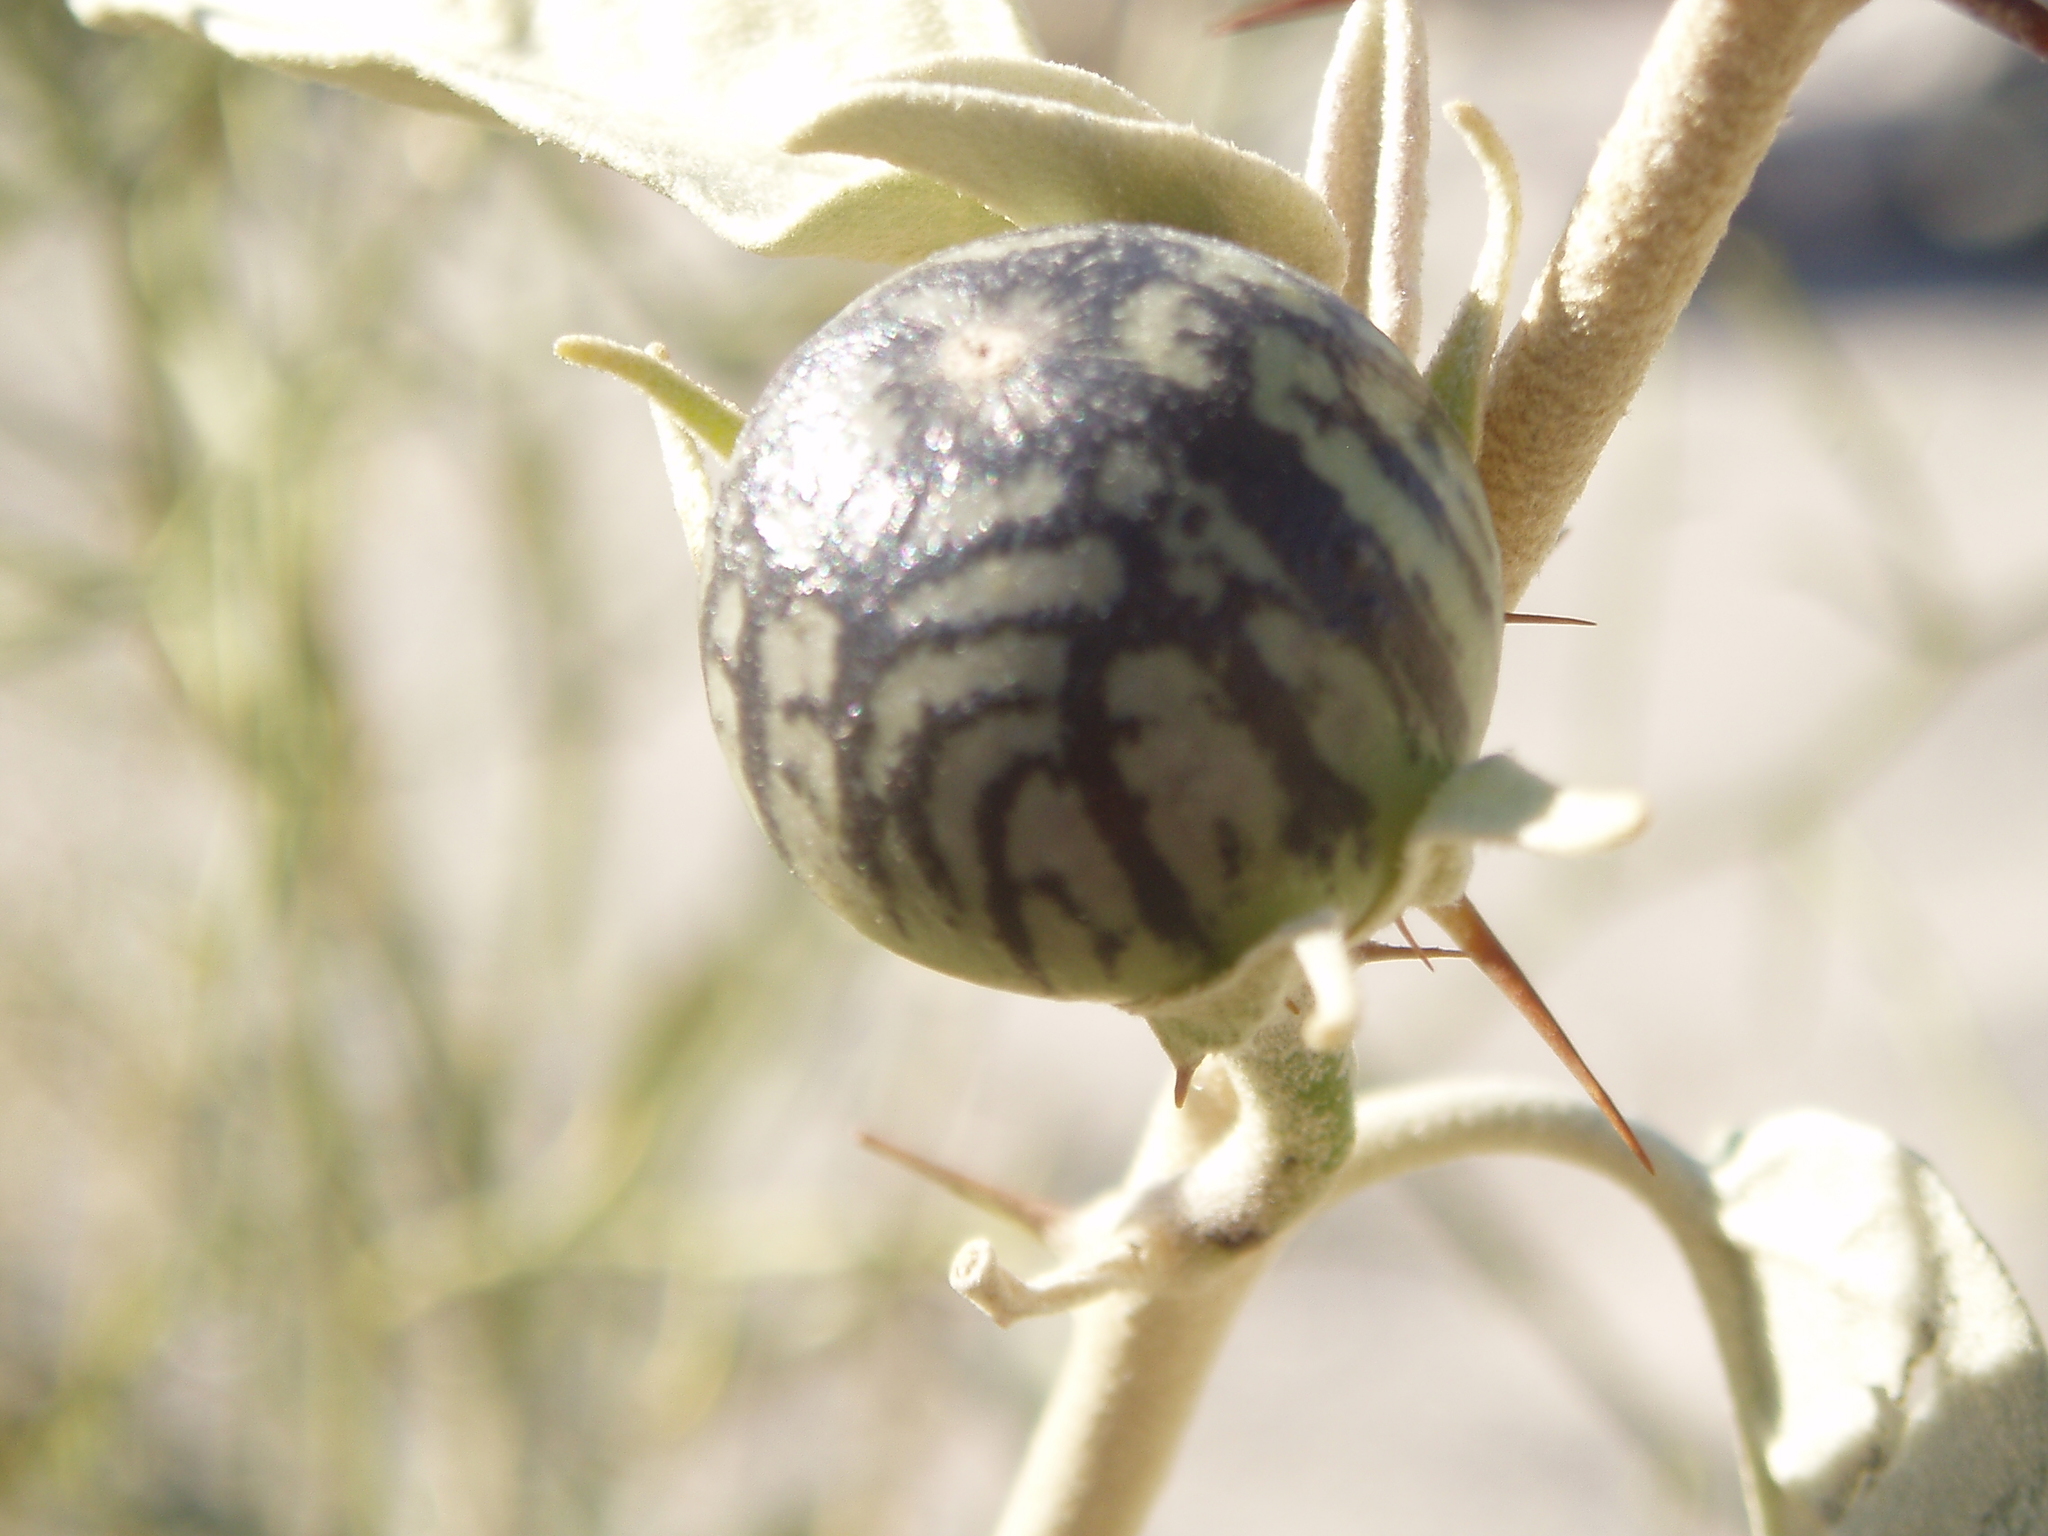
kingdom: Plantae
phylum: Tracheophyta
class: Magnoliopsida
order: Solanales
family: Solanaceae
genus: Solanum
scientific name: Solanum hindsianum
